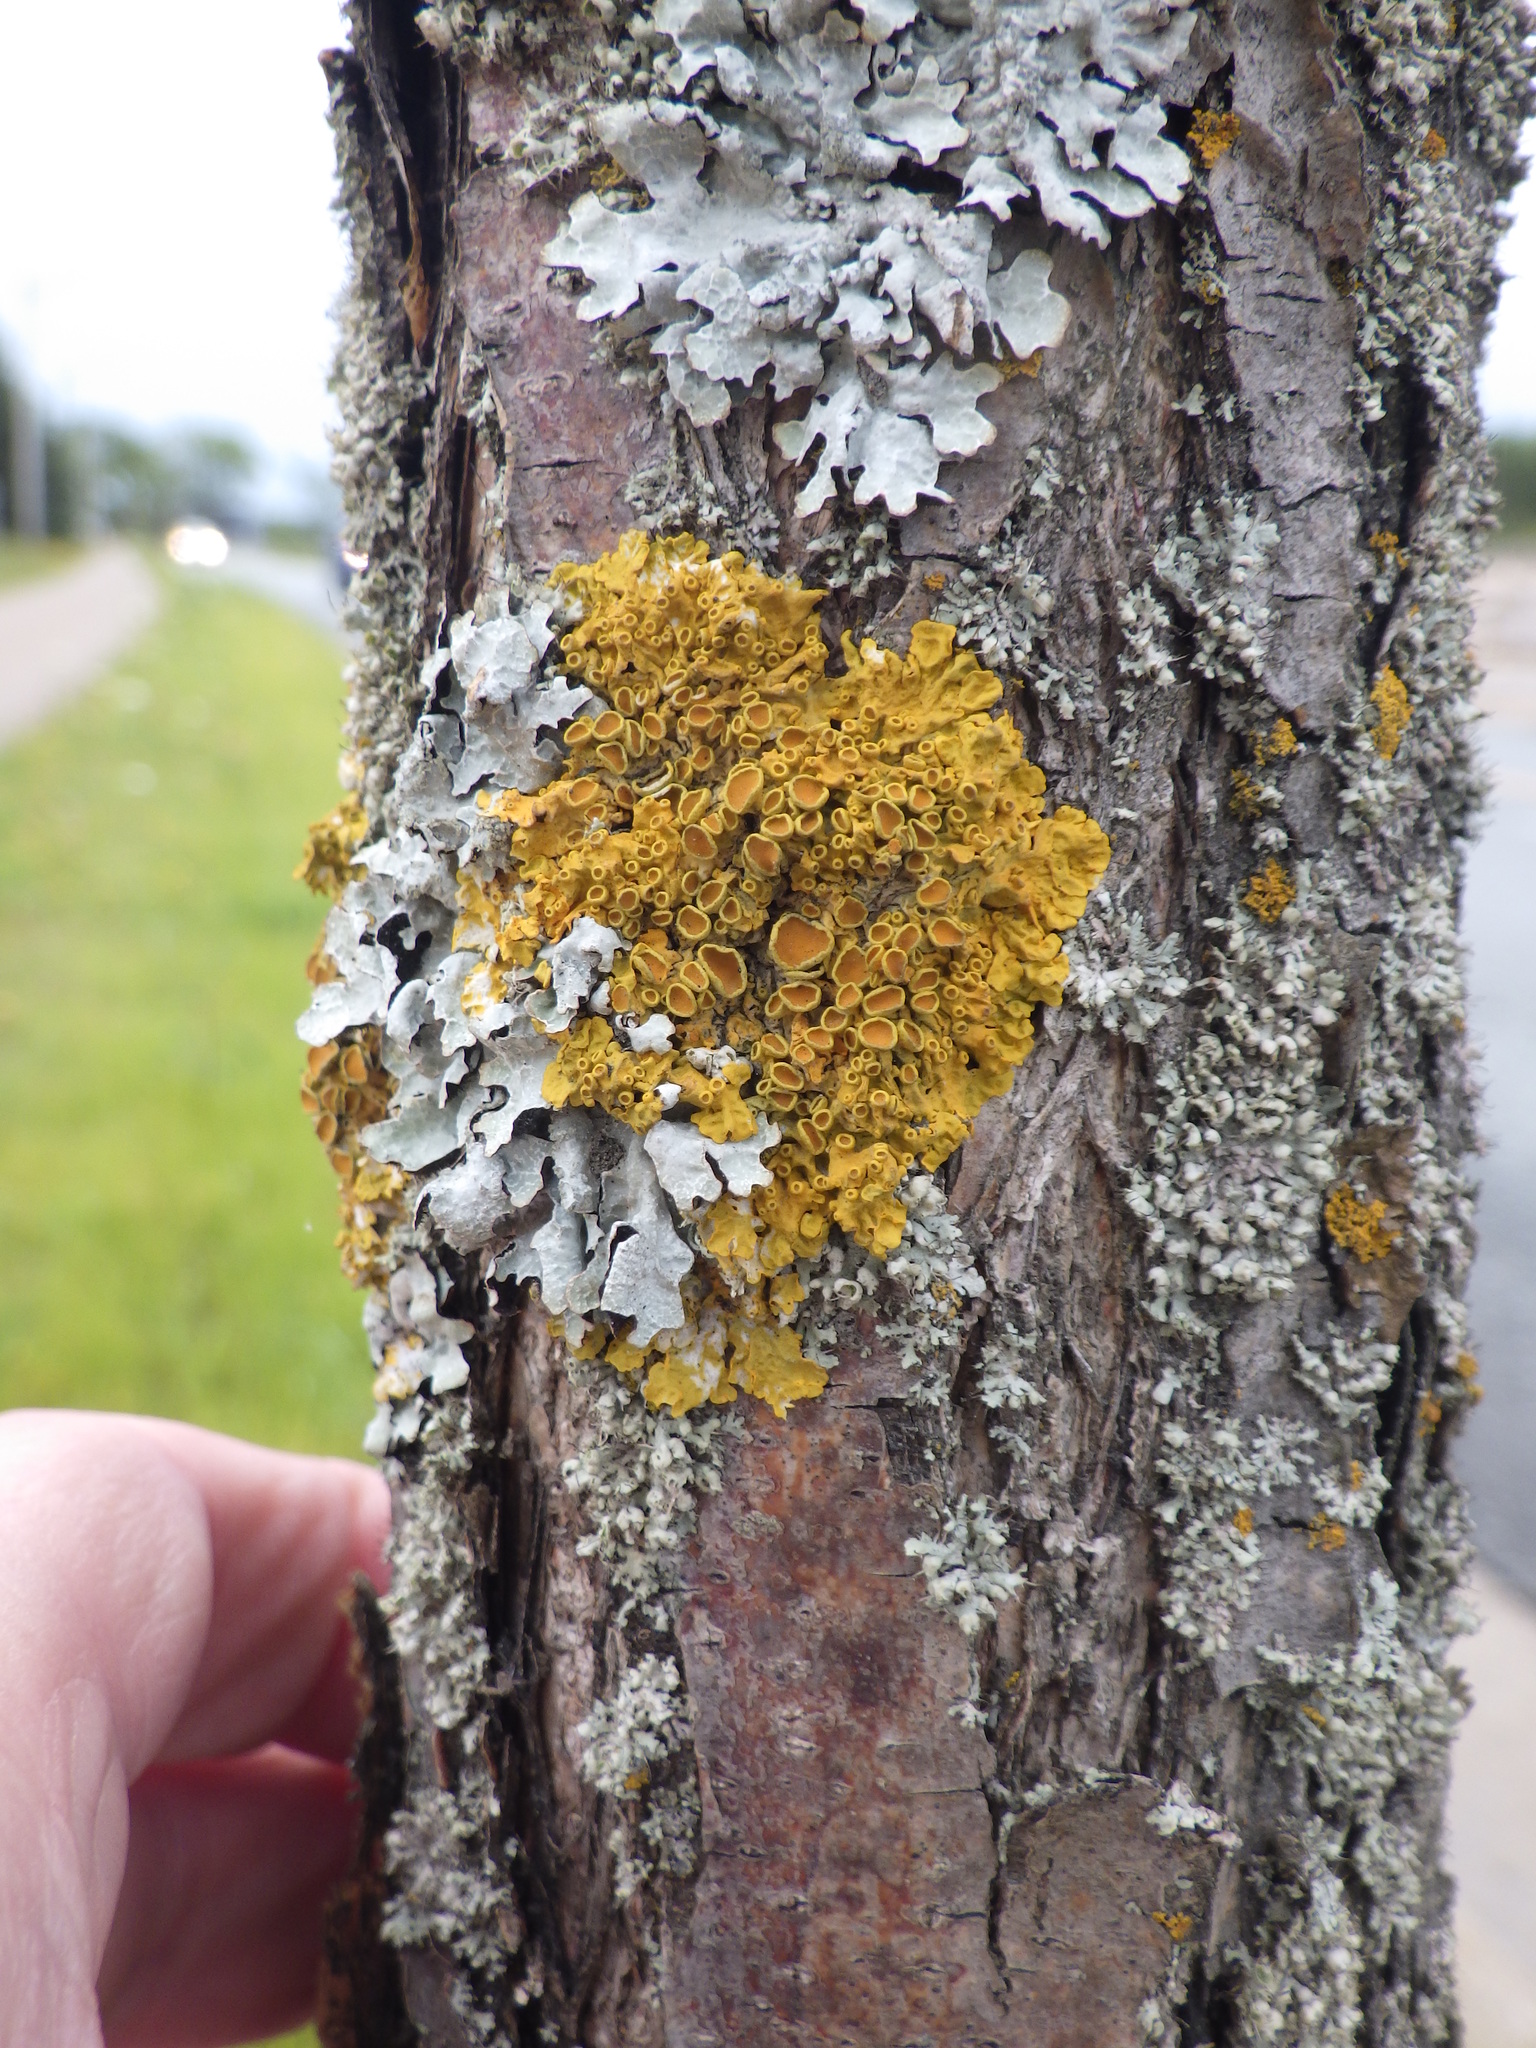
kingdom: Fungi
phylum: Ascomycota
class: Lecanoromycetes
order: Teloschistales
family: Teloschistaceae
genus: Xanthoria
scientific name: Xanthoria parietina
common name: Common orange lichen
